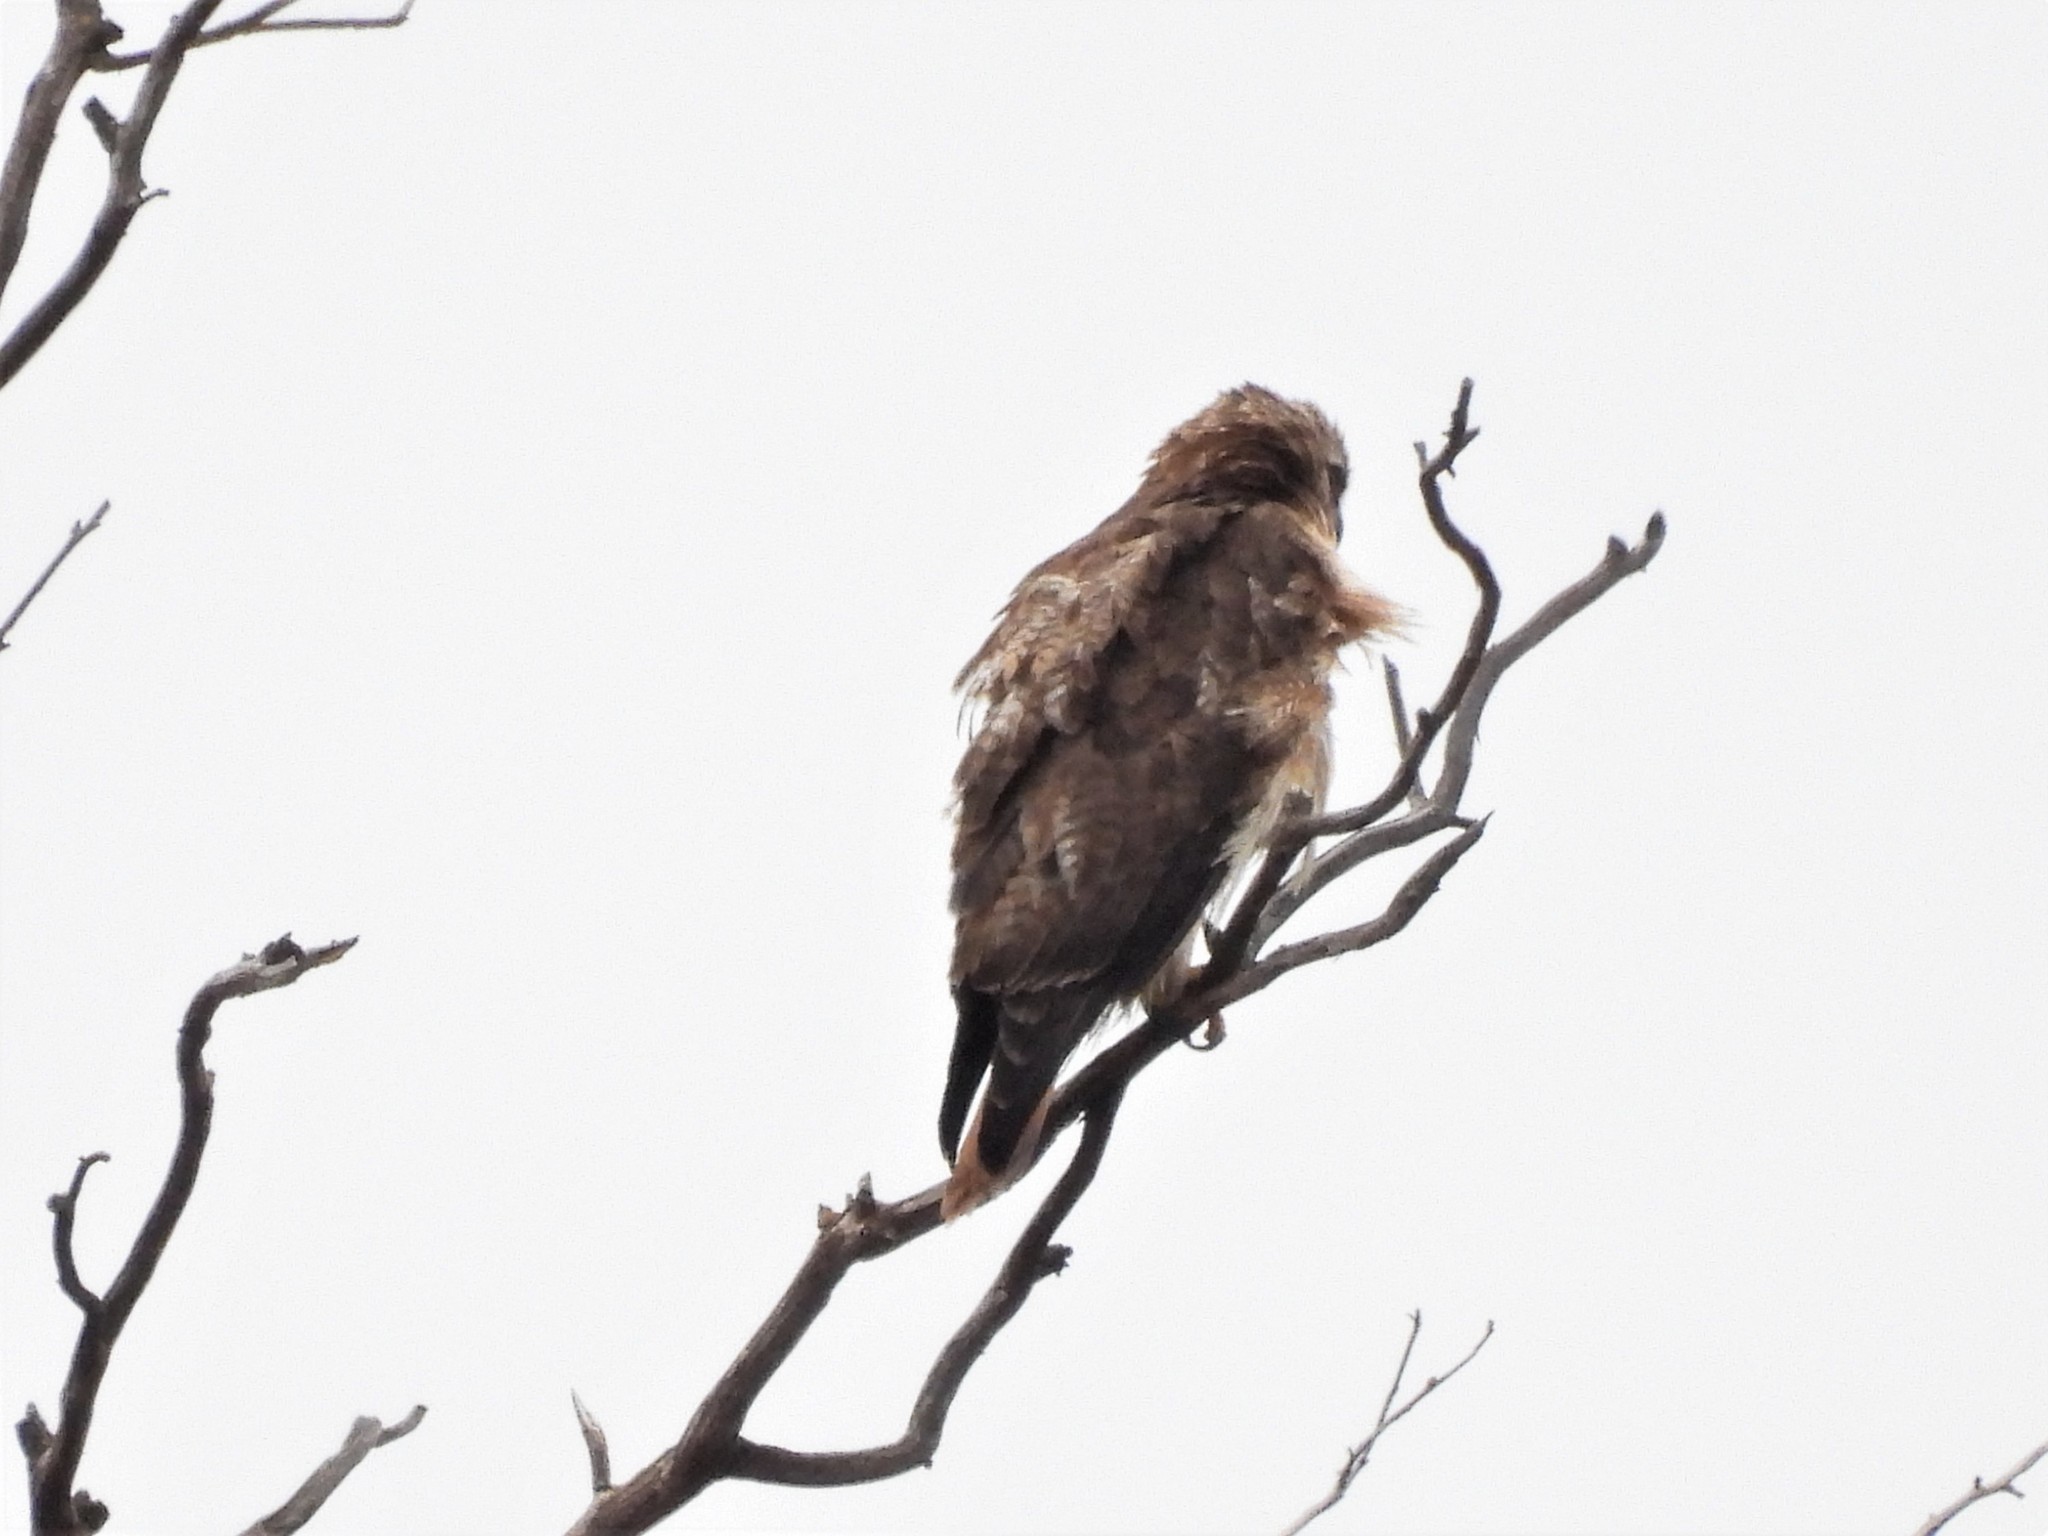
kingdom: Animalia
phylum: Chordata
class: Aves
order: Accipitriformes
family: Accipitridae
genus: Buteo
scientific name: Buteo jamaicensis
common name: Red-tailed hawk
